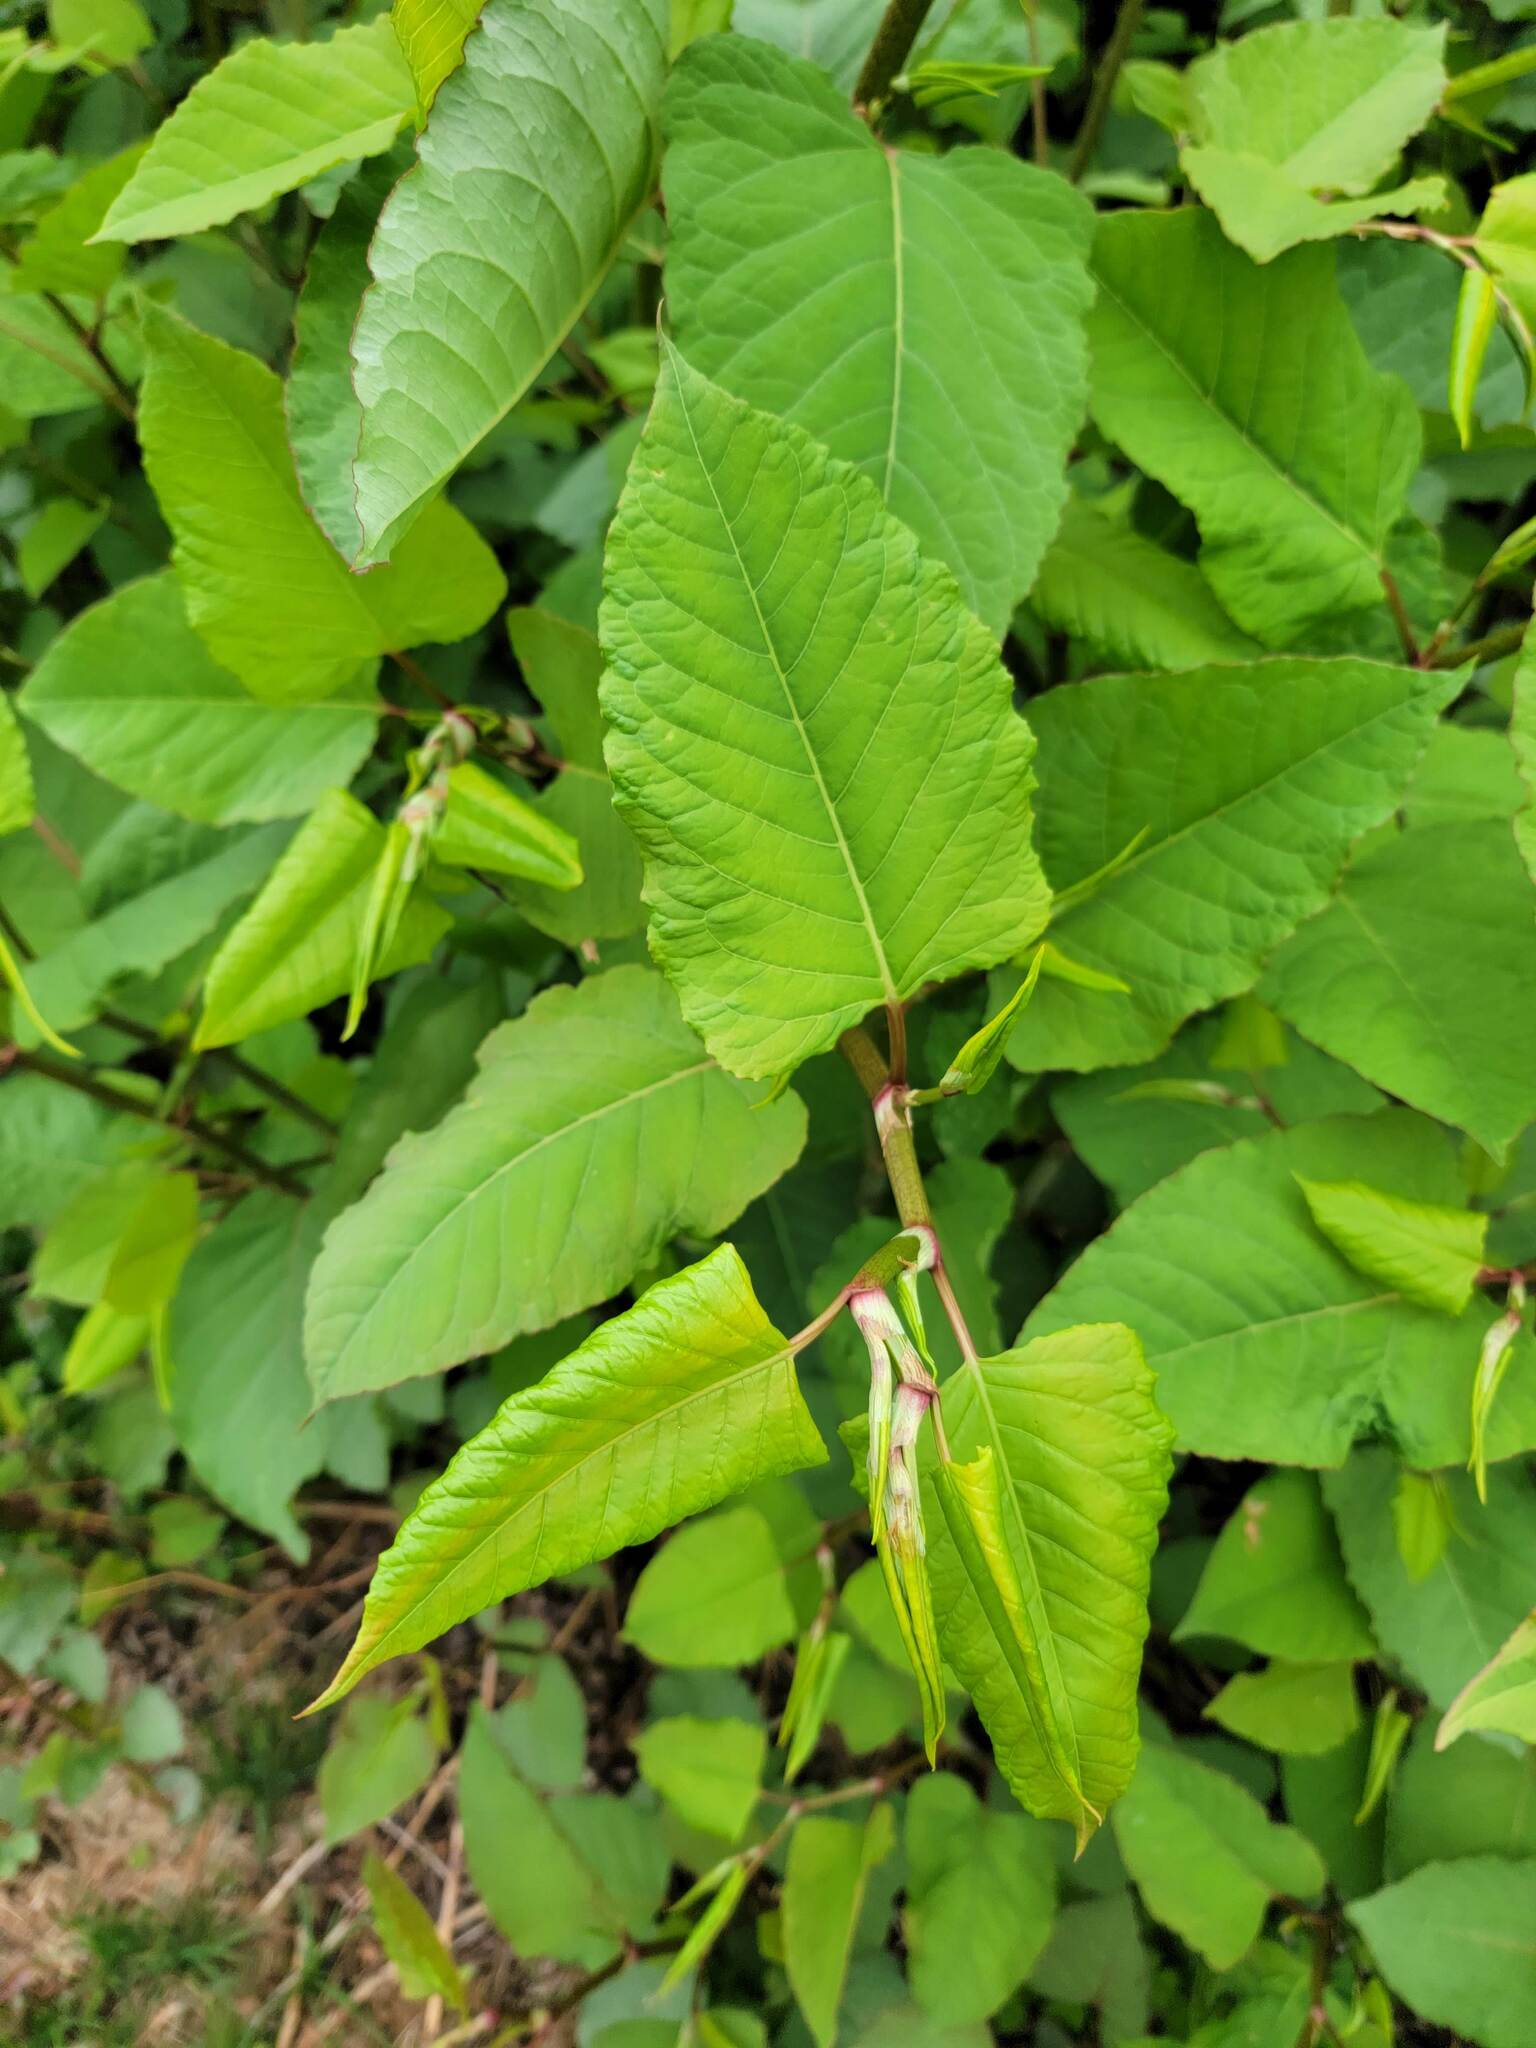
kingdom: Plantae
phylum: Tracheophyta
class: Magnoliopsida
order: Caryophyllales
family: Polygonaceae
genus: Reynoutria
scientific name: Reynoutria japonica
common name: Japanese knotweed
